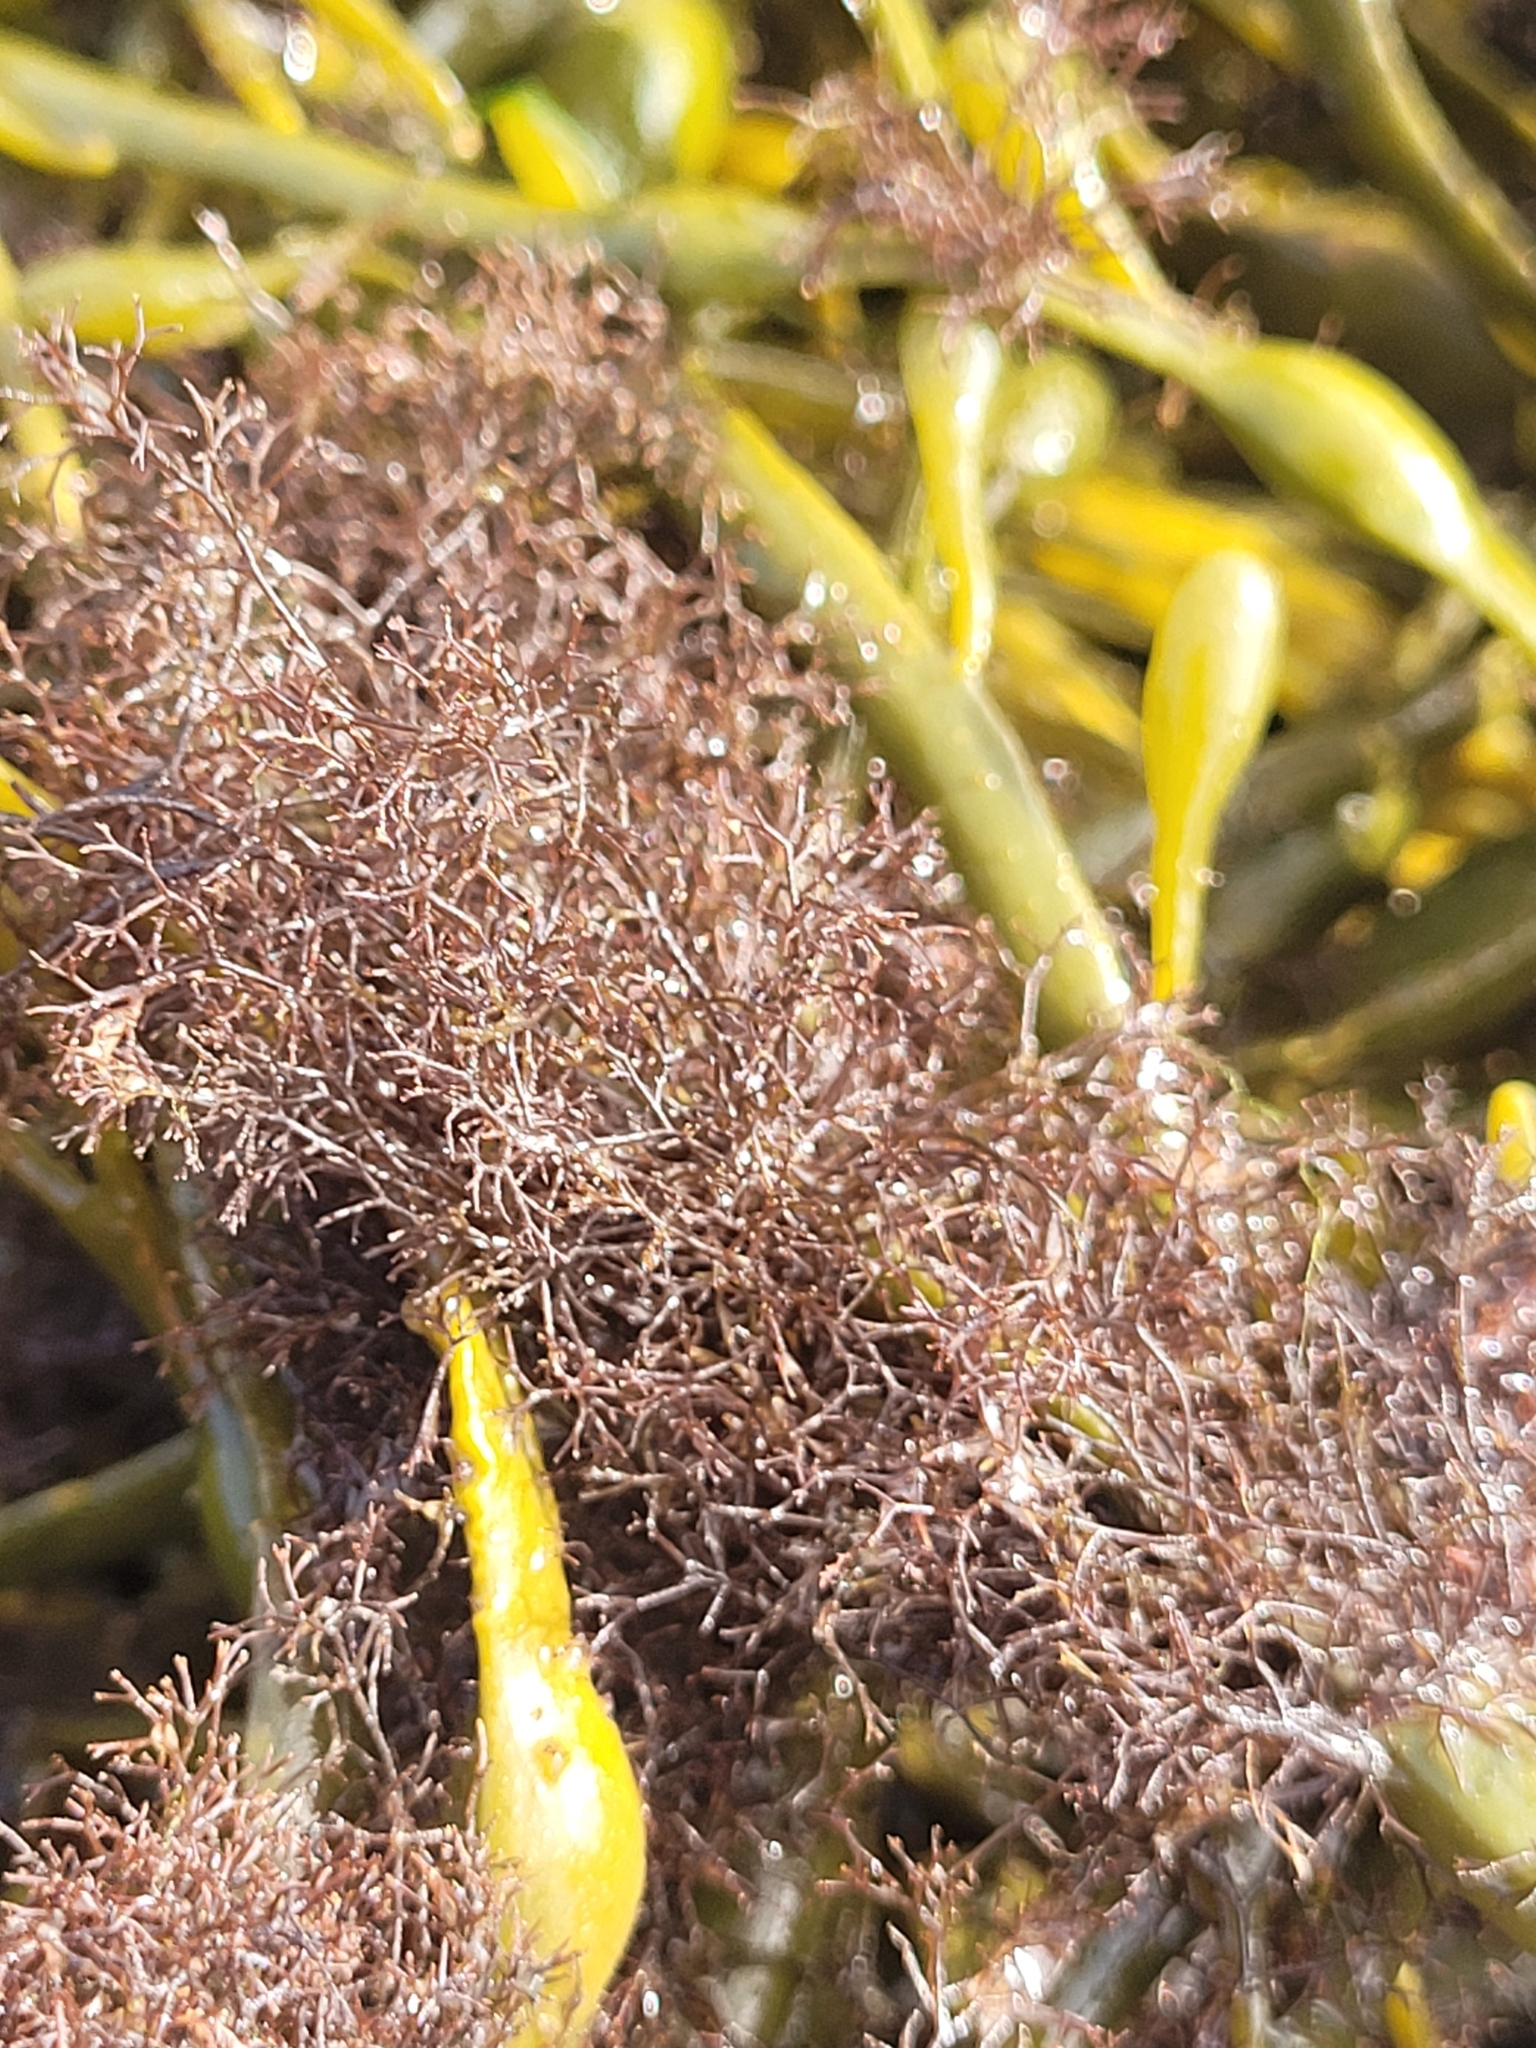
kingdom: Plantae
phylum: Rhodophyta
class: Florideophyceae
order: Ceramiales
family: Rhodomelaceae
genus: Vertebrata
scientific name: Vertebrata lanosa
